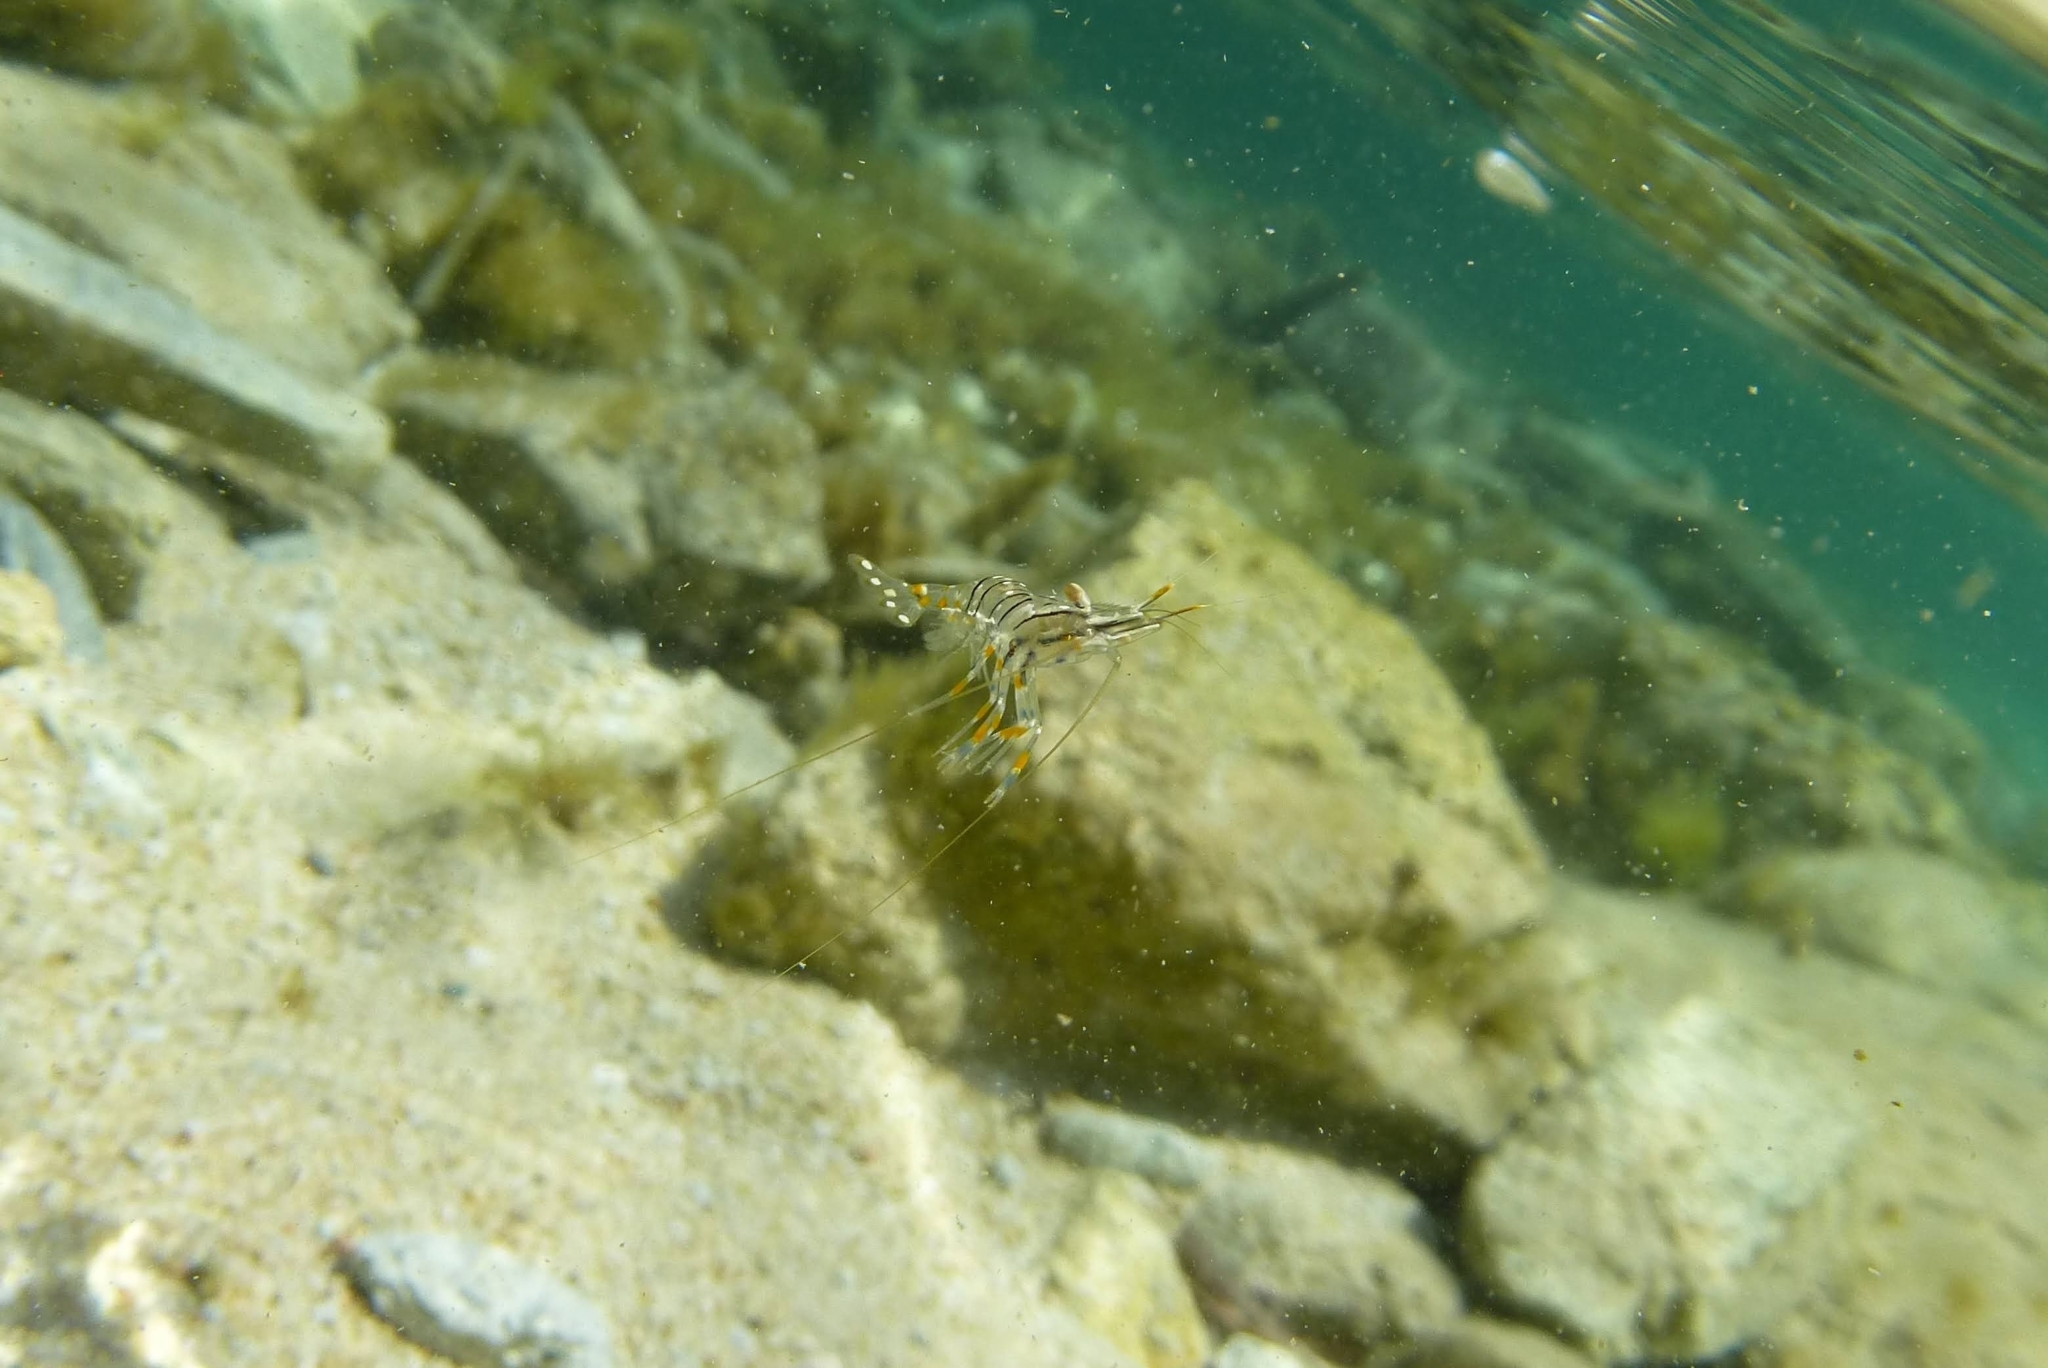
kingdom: Animalia
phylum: Arthropoda
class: Malacostraca
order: Decapoda
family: Palaemonidae
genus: Palaemon
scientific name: Palaemon elegans
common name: Grass prawm
